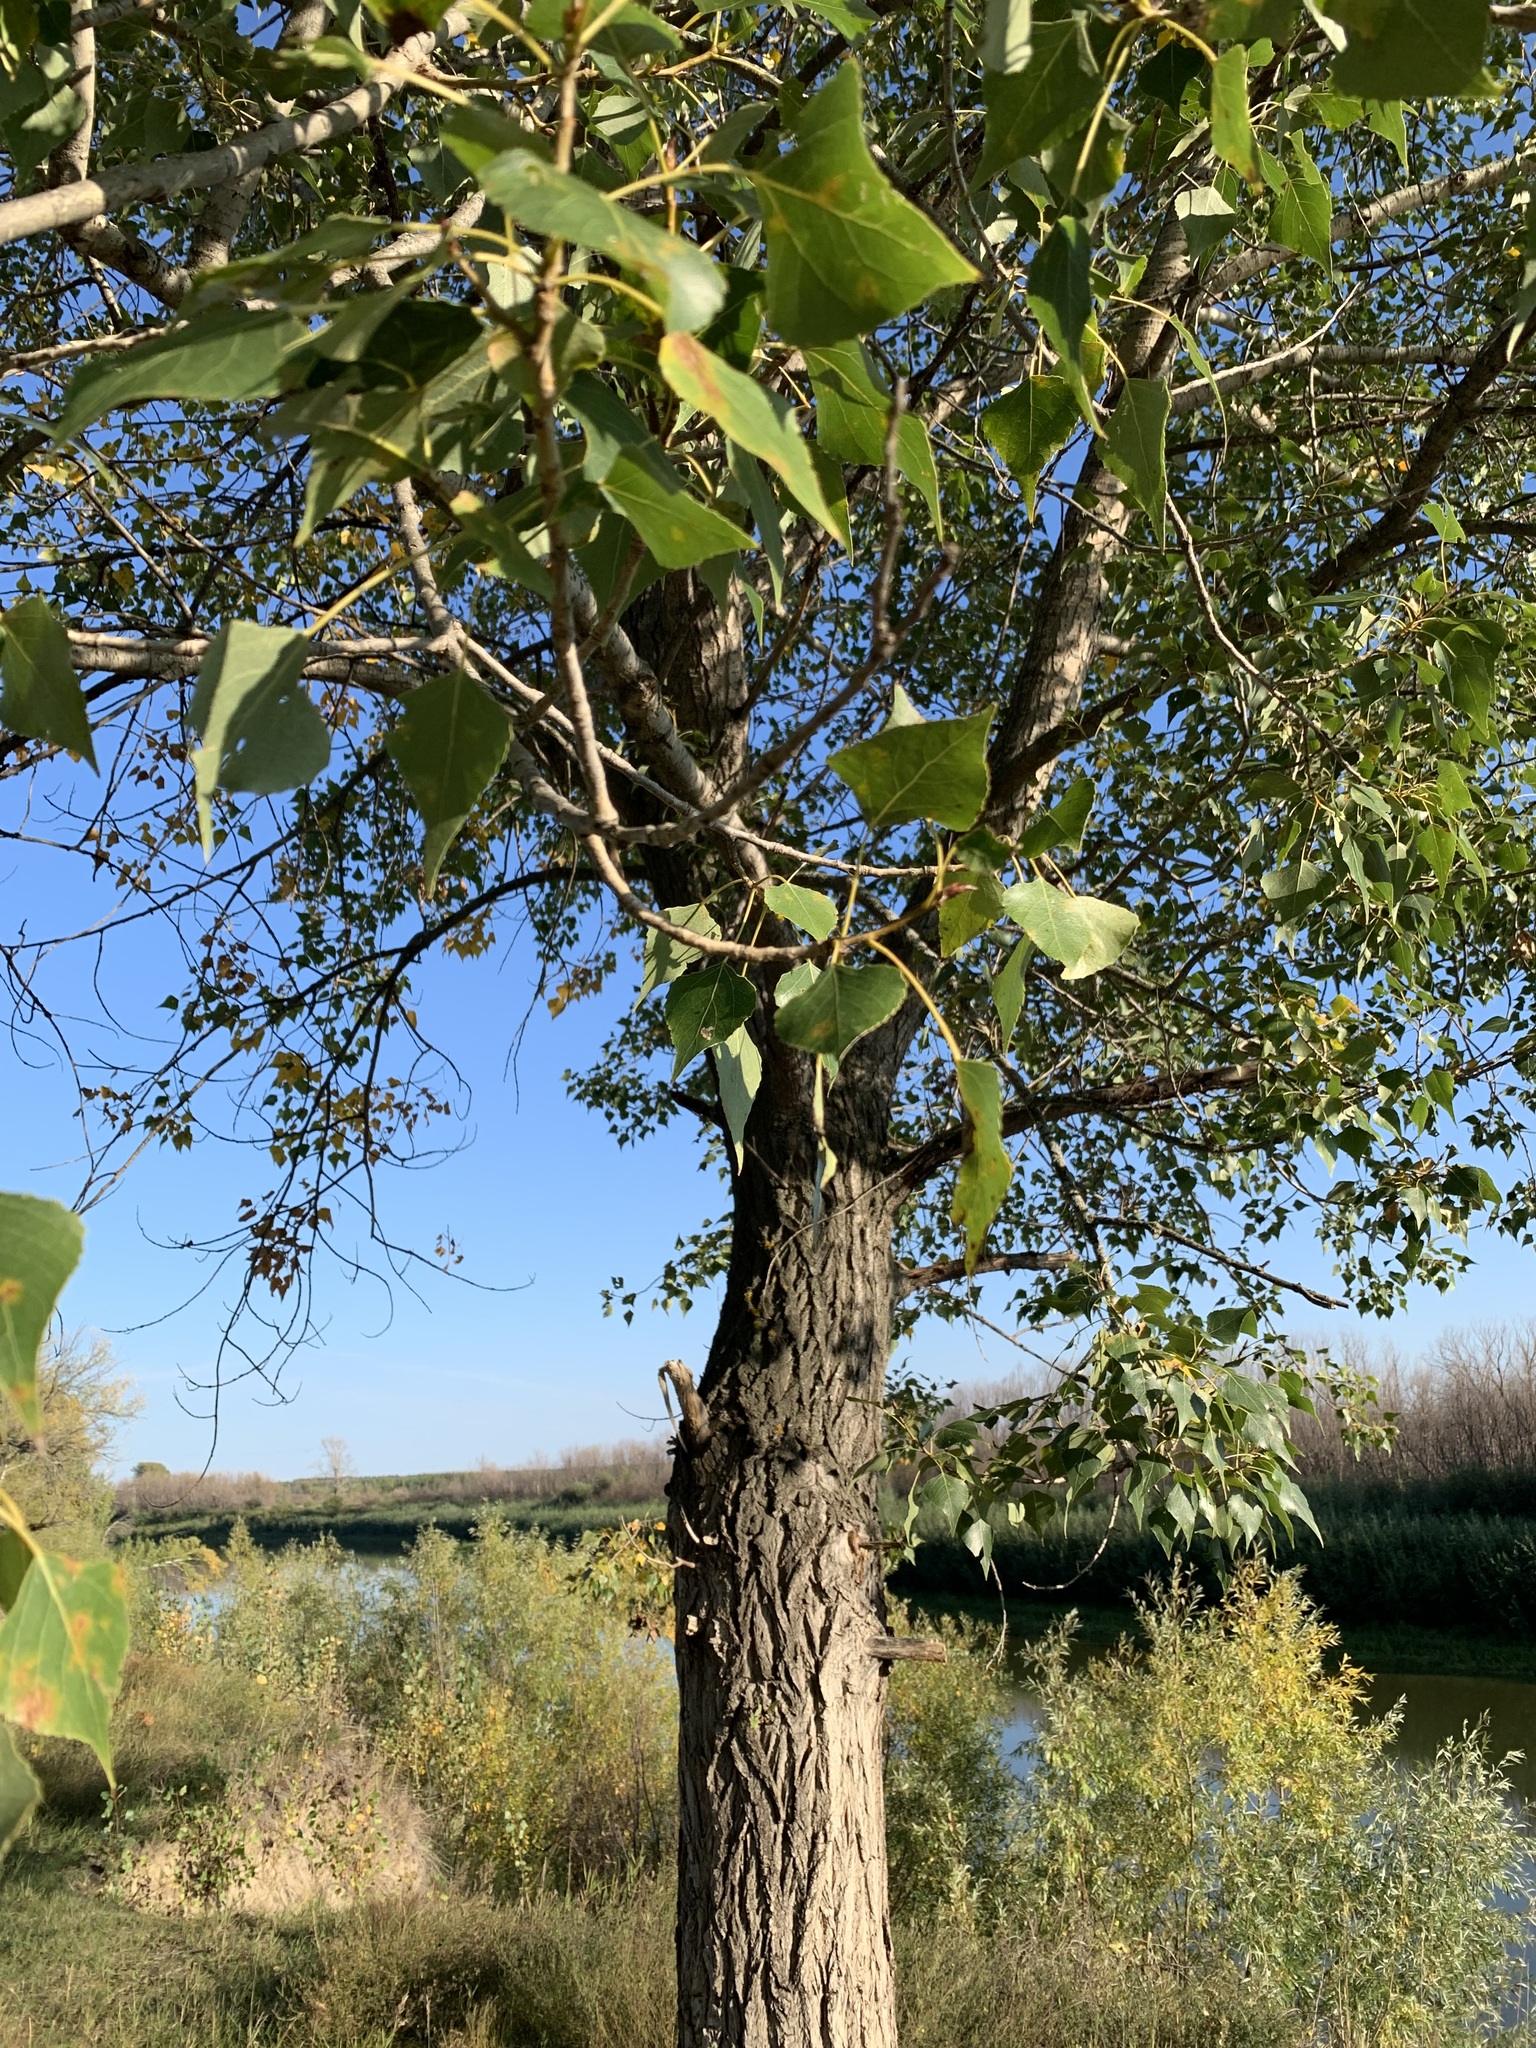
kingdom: Plantae
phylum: Tracheophyta
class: Magnoliopsida
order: Malpighiales
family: Salicaceae
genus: Populus
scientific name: Populus nigra
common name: Black poplar
